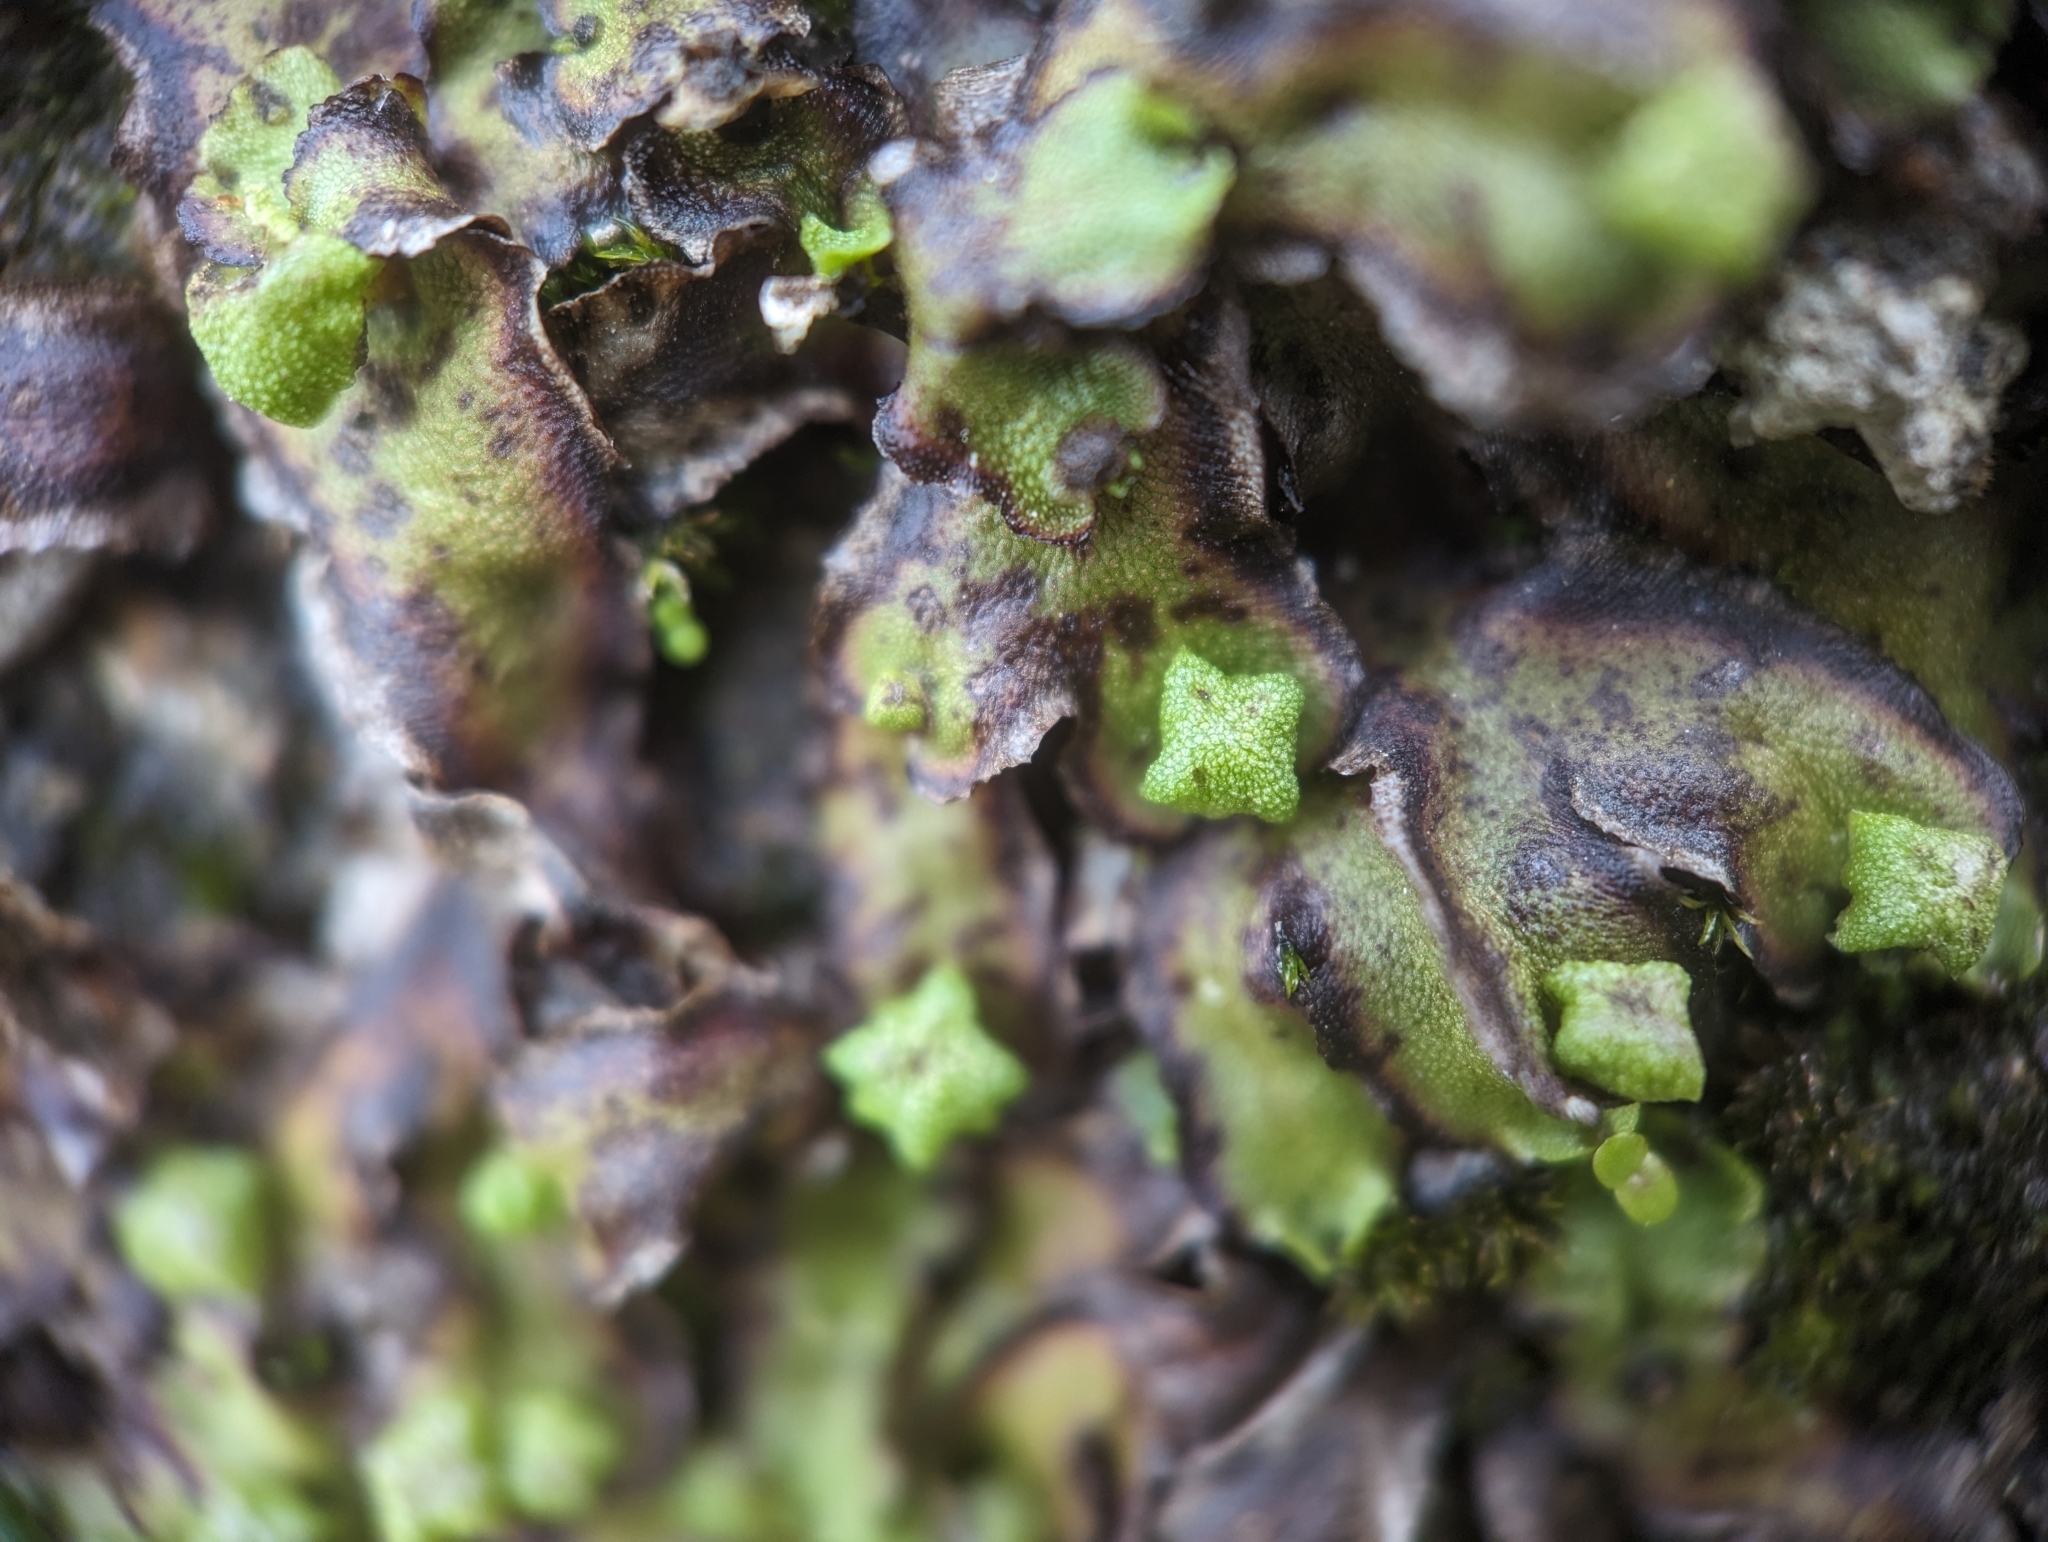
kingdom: Plantae
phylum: Marchantiophyta
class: Marchantiopsida
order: Marchantiales
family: Marchantiaceae
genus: Marchantia
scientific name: Marchantia quadrata
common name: Narrow mushroom-headed liverwort
